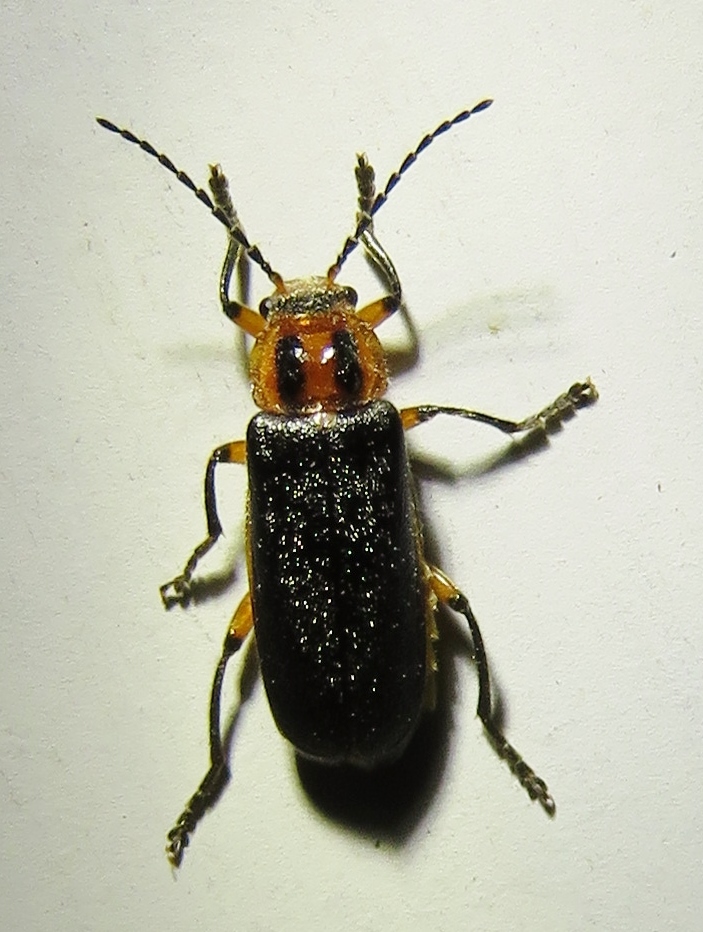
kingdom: Animalia
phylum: Arthropoda
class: Insecta
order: Coleoptera
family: Cantharidae
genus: Atalantycha
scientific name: Atalantycha bilineata
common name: Two-lined leatherwing
